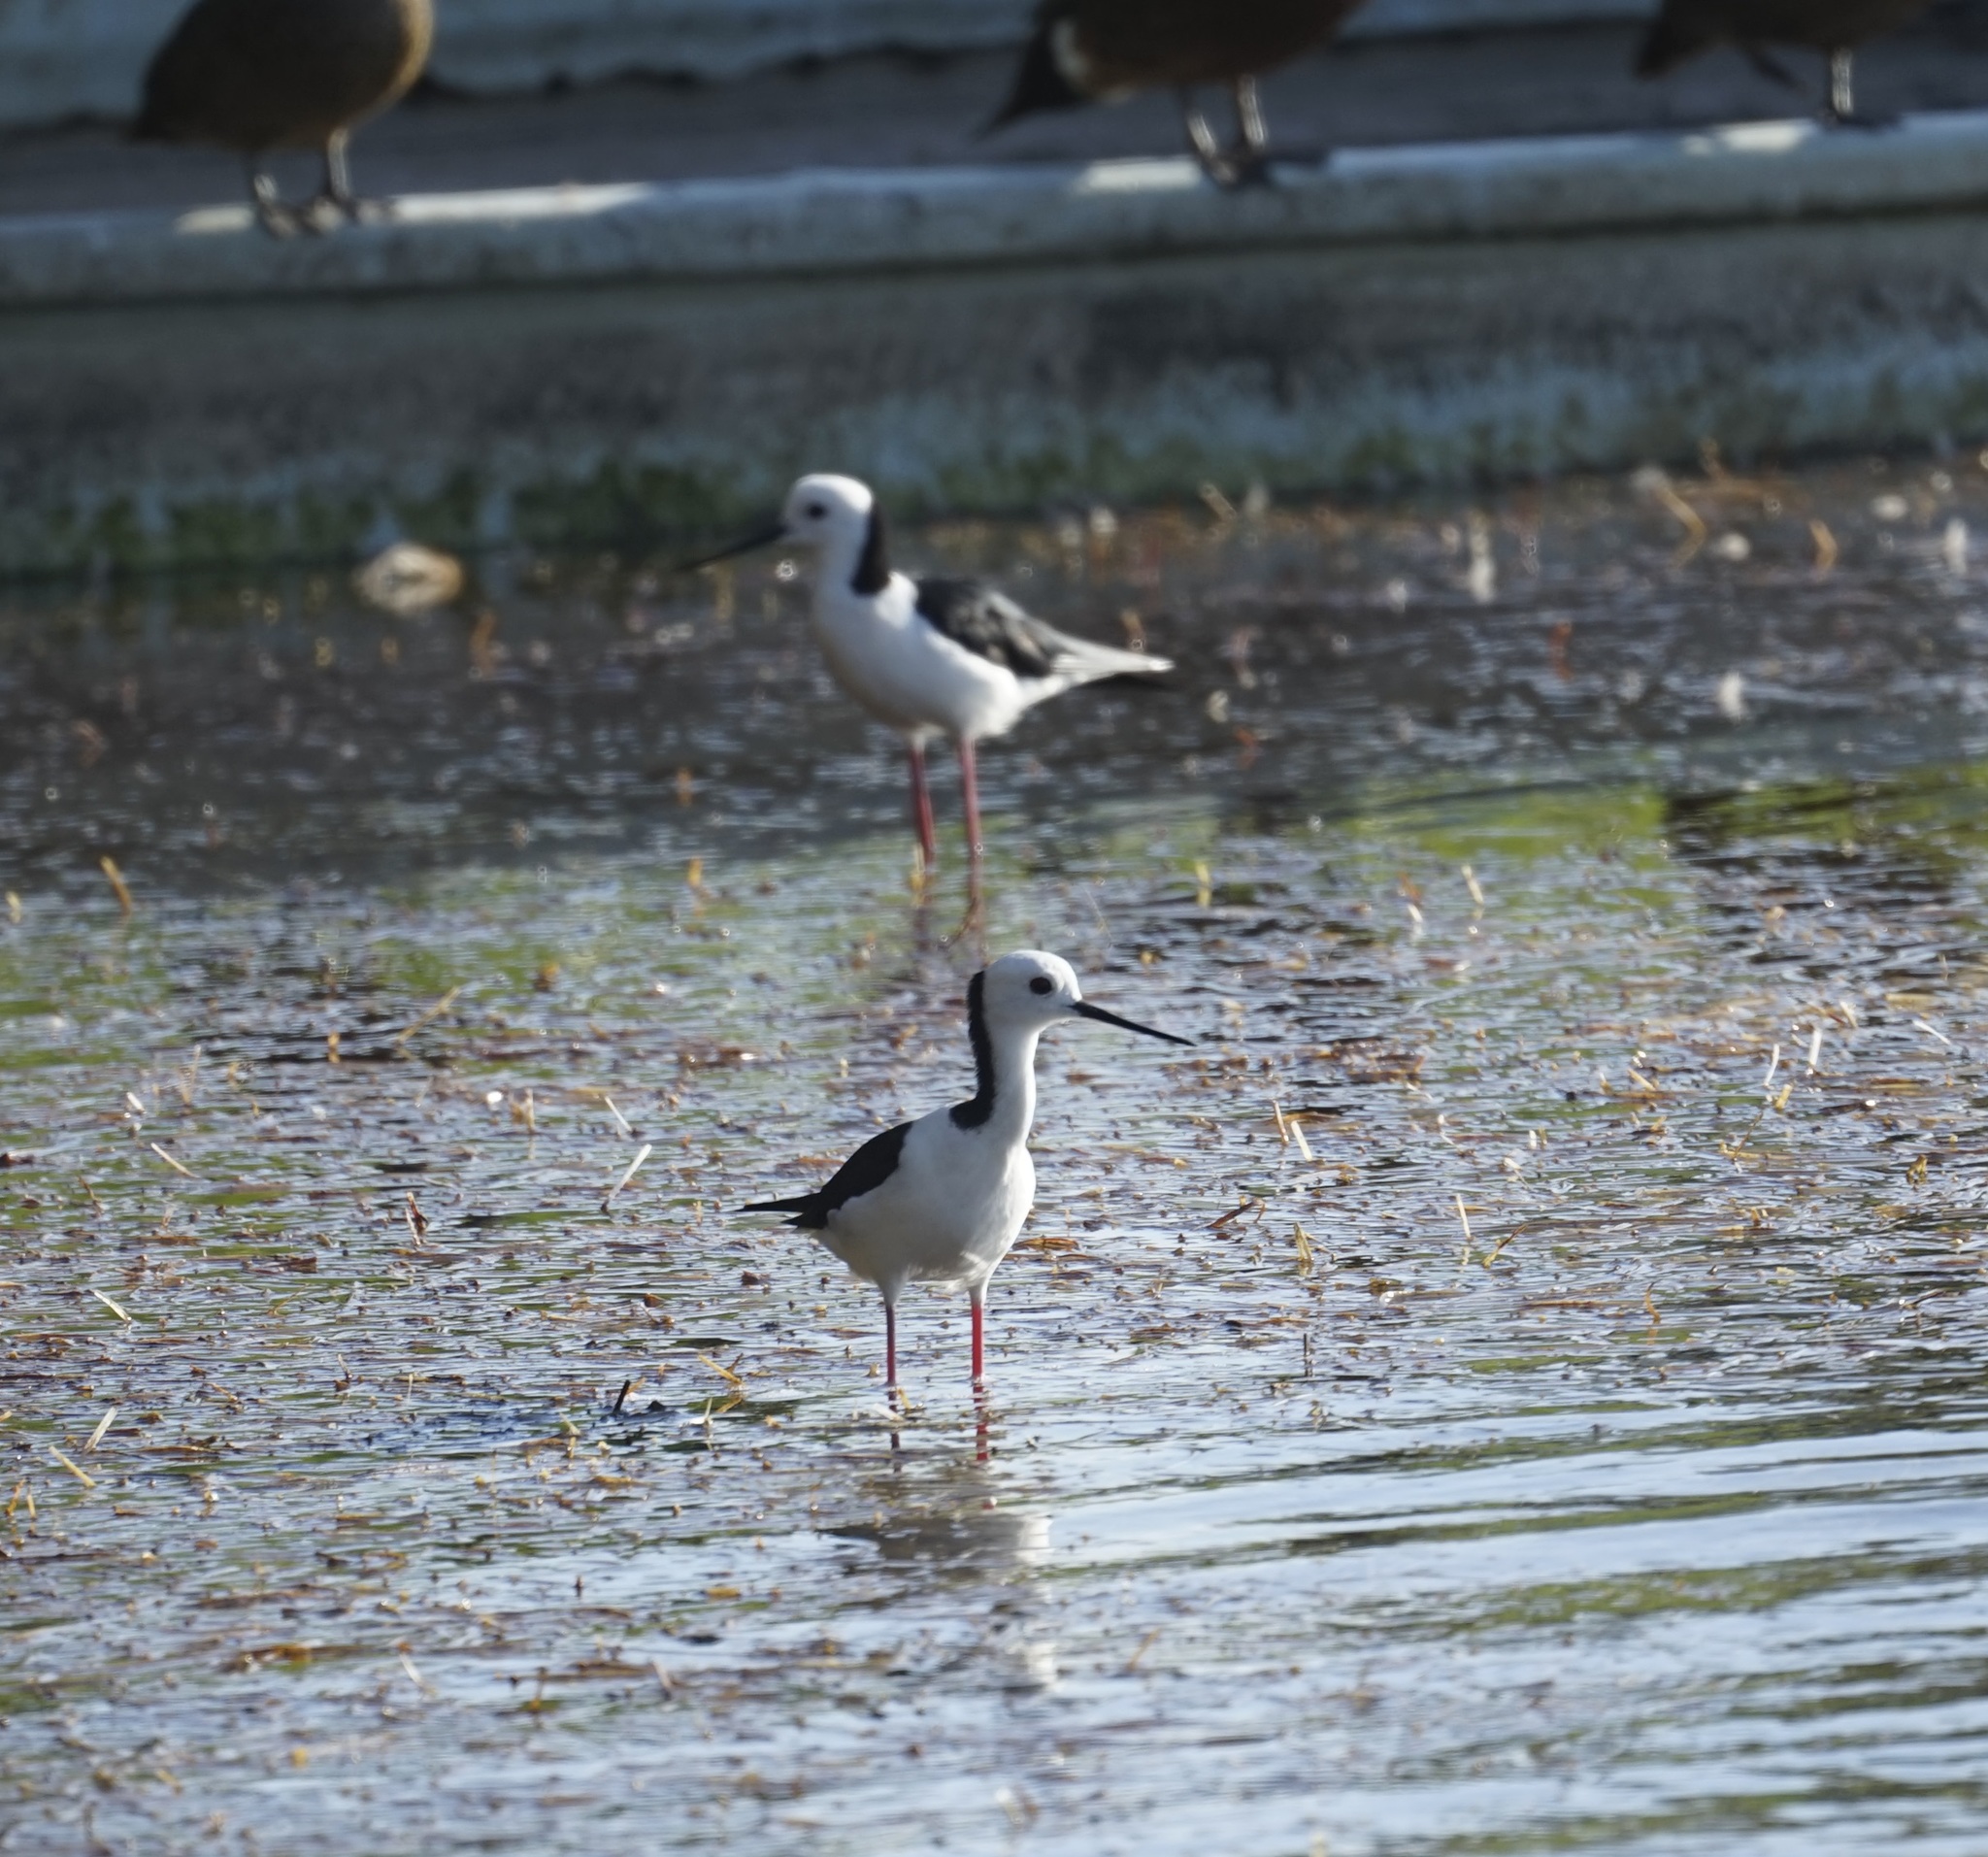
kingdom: Animalia
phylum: Chordata
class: Aves
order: Charadriiformes
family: Recurvirostridae
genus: Himantopus
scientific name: Himantopus leucocephalus
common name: White-headed stilt
